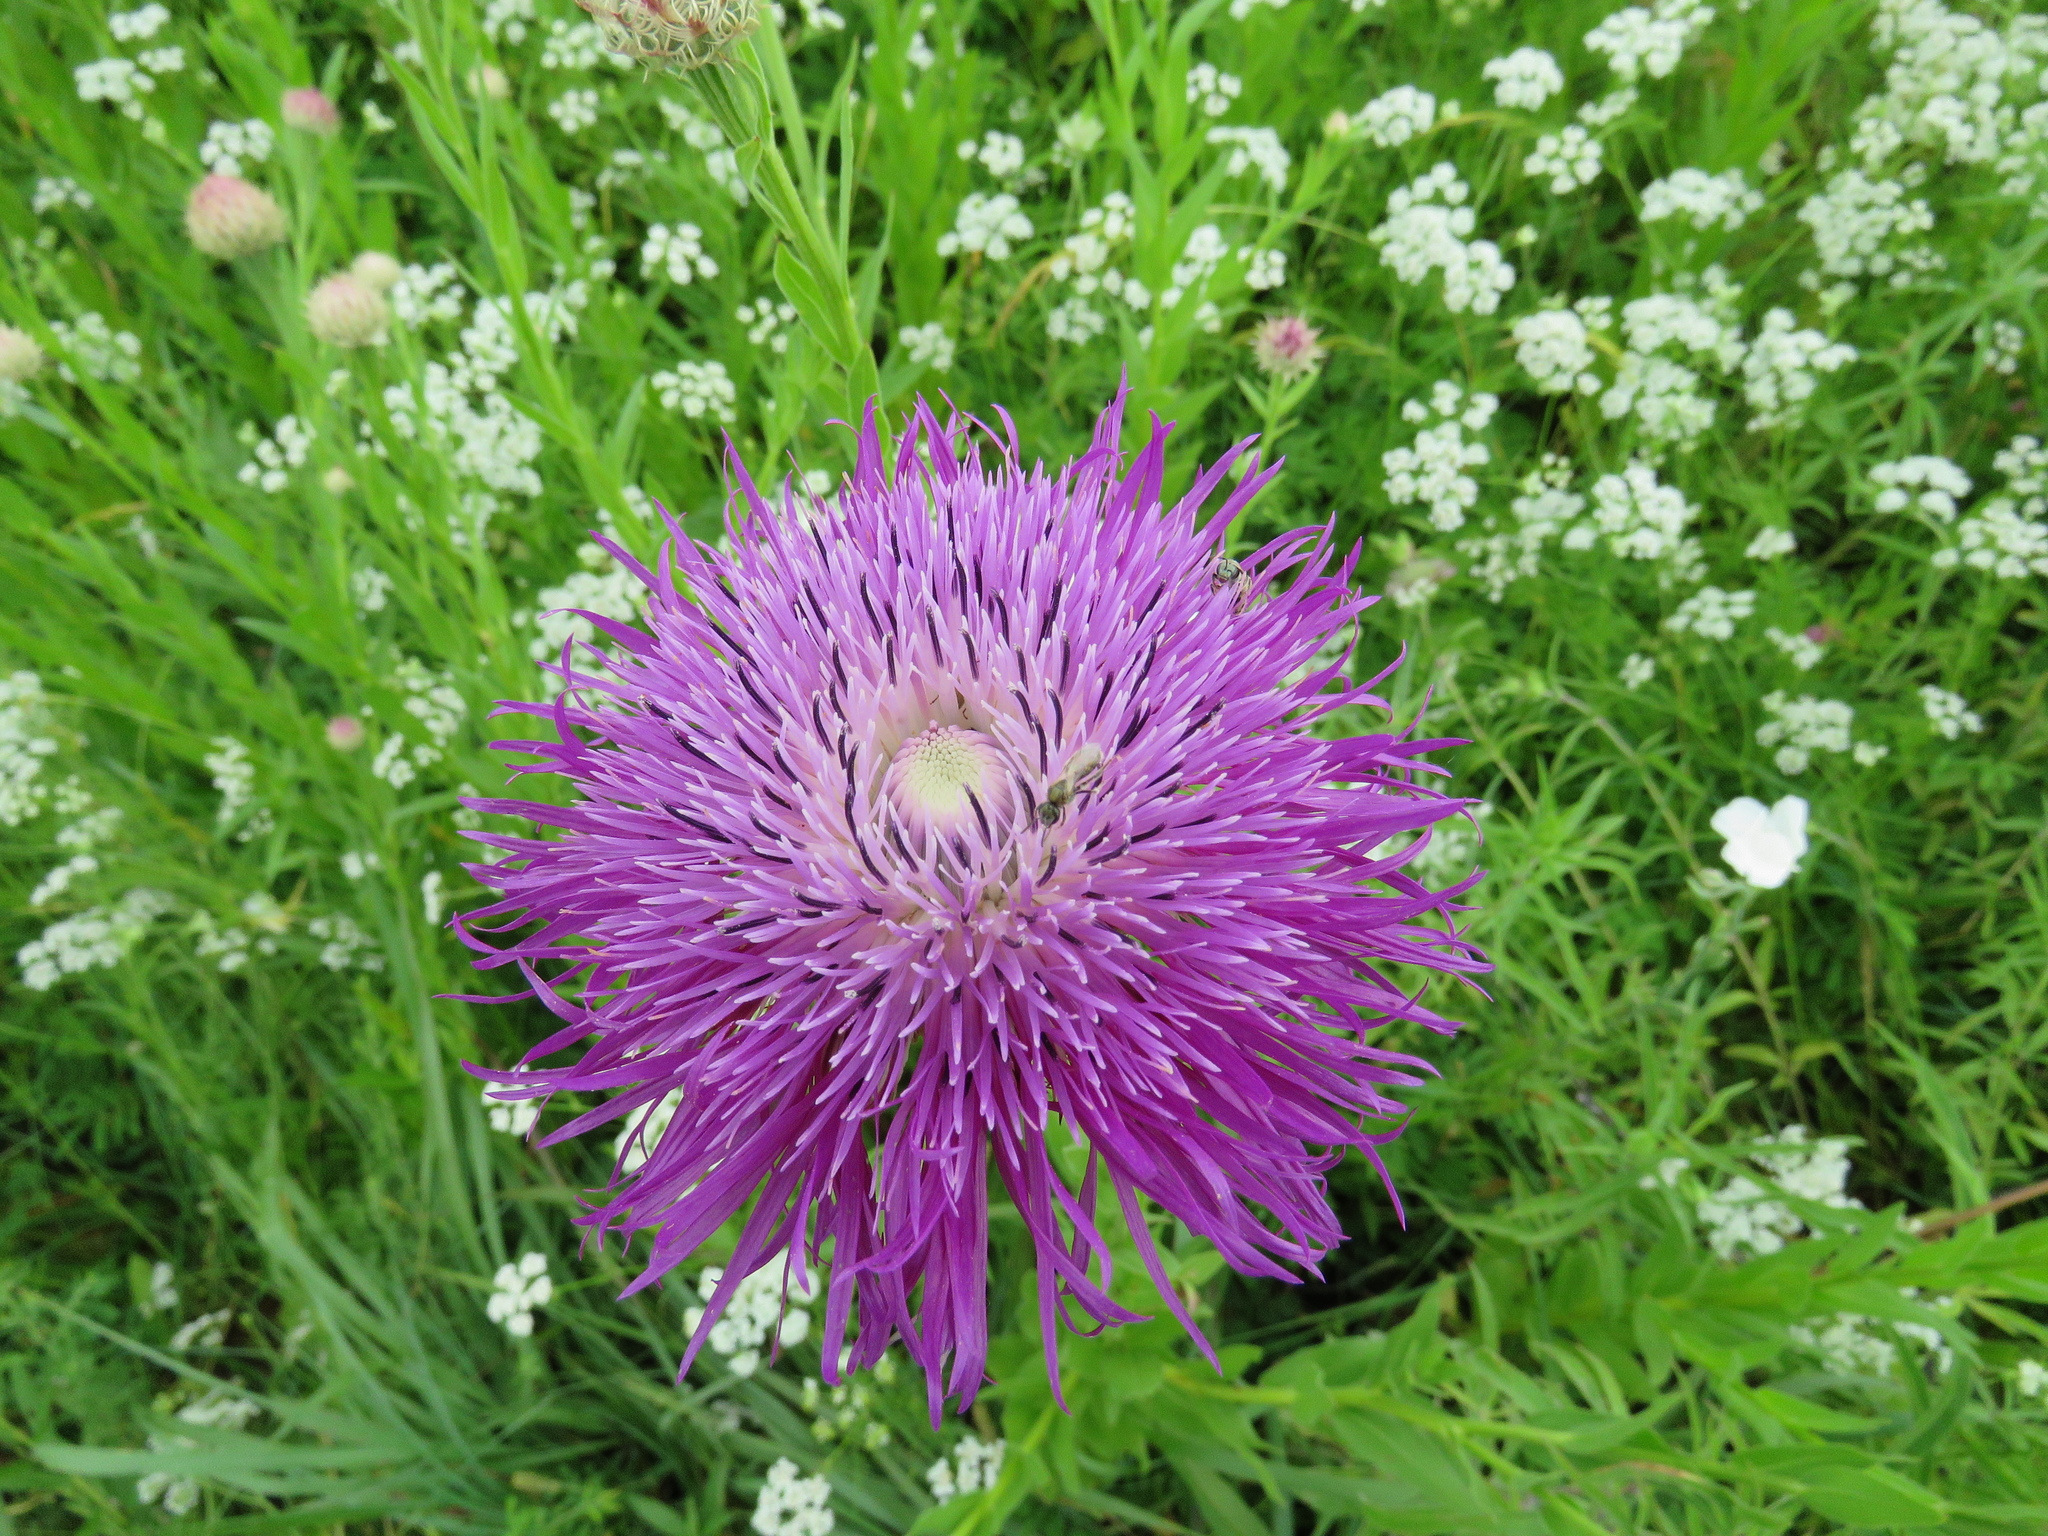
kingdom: Plantae
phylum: Tracheophyta
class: Magnoliopsida
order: Asterales
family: Asteraceae
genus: Plectocephalus
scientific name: Plectocephalus americanus
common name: American basket-flower
